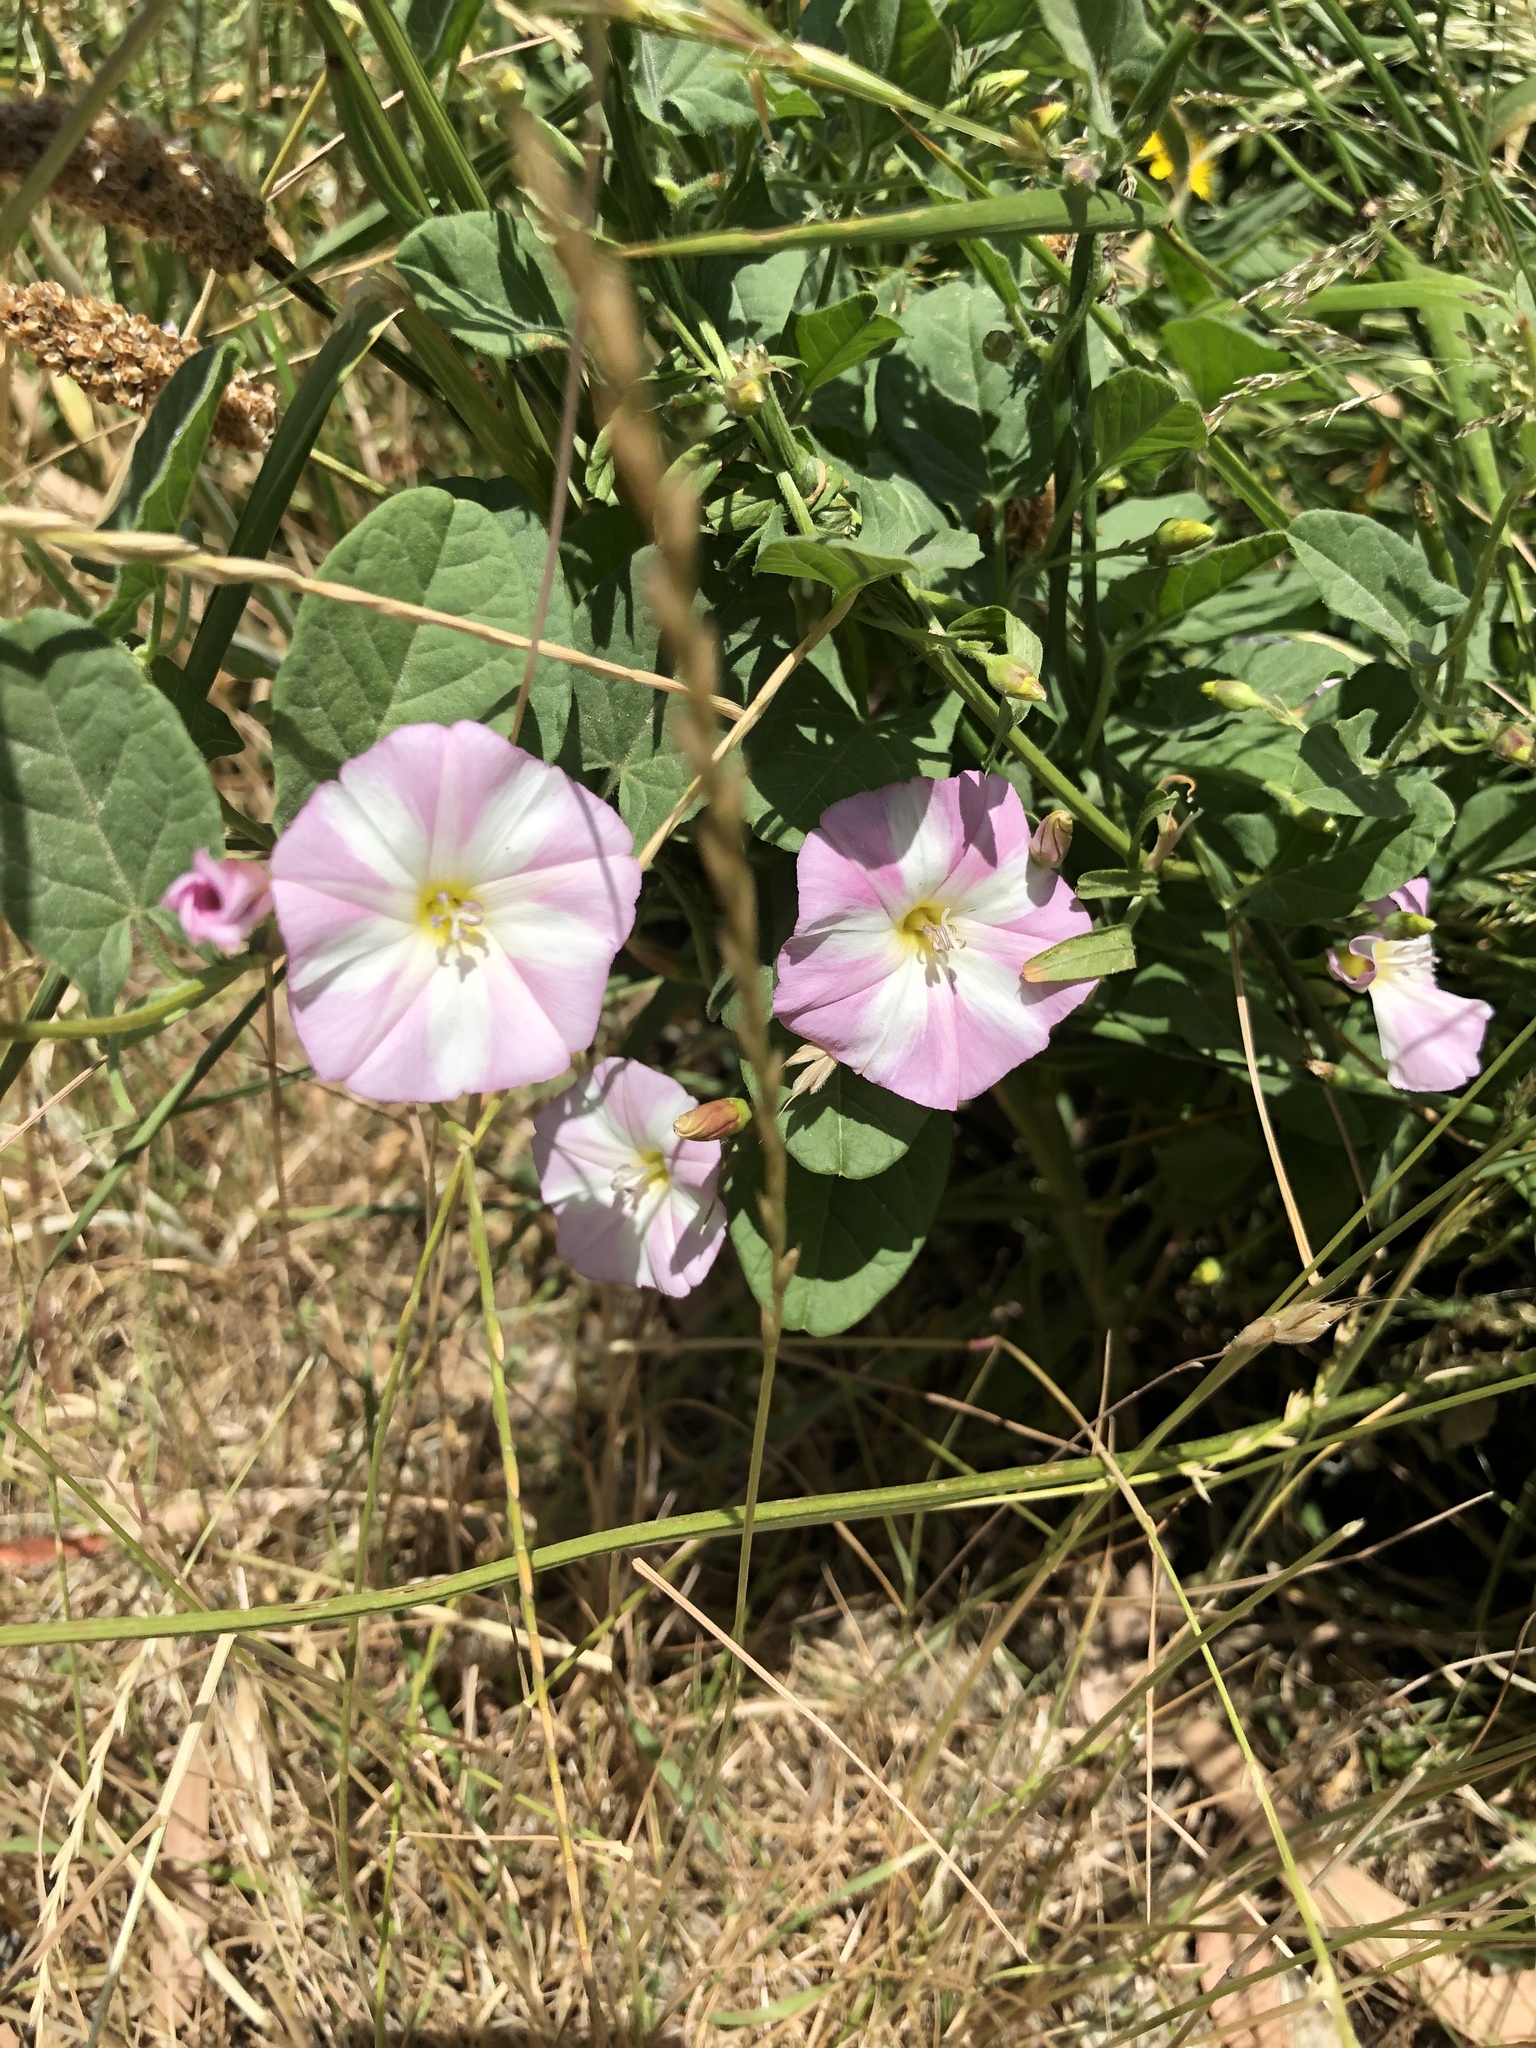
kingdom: Plantae
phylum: Tracheophyta
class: Magnoliopsida
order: Solanales
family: Convolvulaceae
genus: Convolvulus
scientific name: Convolvulus arvensis
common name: Field bindweed
